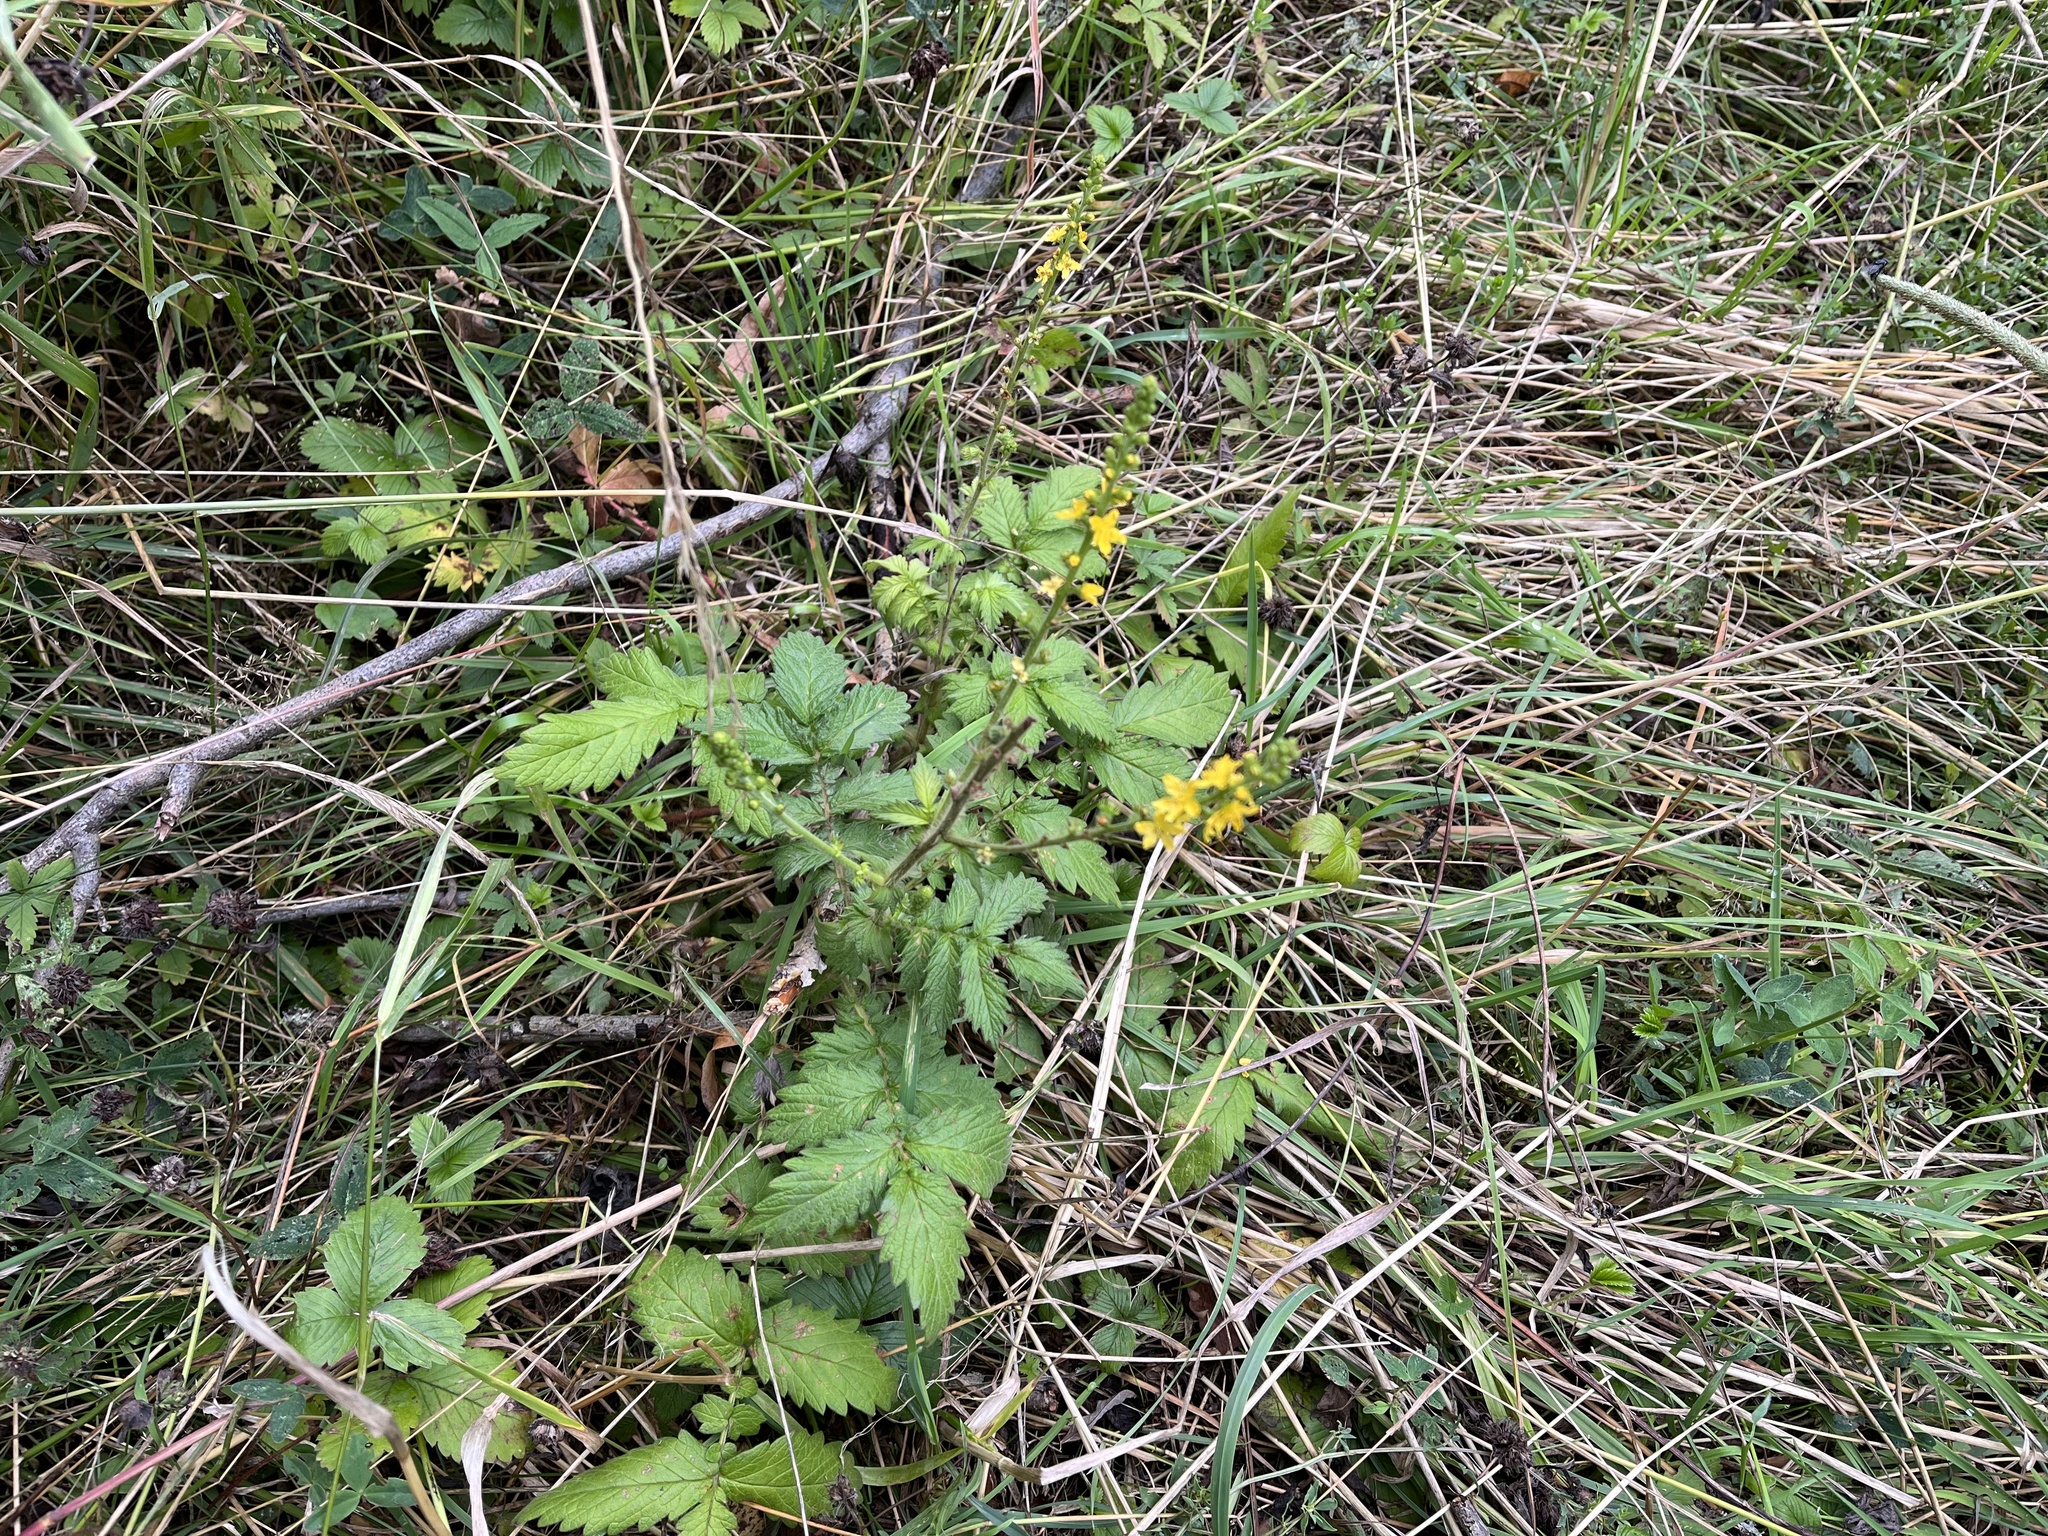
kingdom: Plantae
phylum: Tracheophyta
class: Magnoliopsida
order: Rosales
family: Rosaceae
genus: Agrimonia
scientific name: Agrimonia eupatoria
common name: Agrimony
